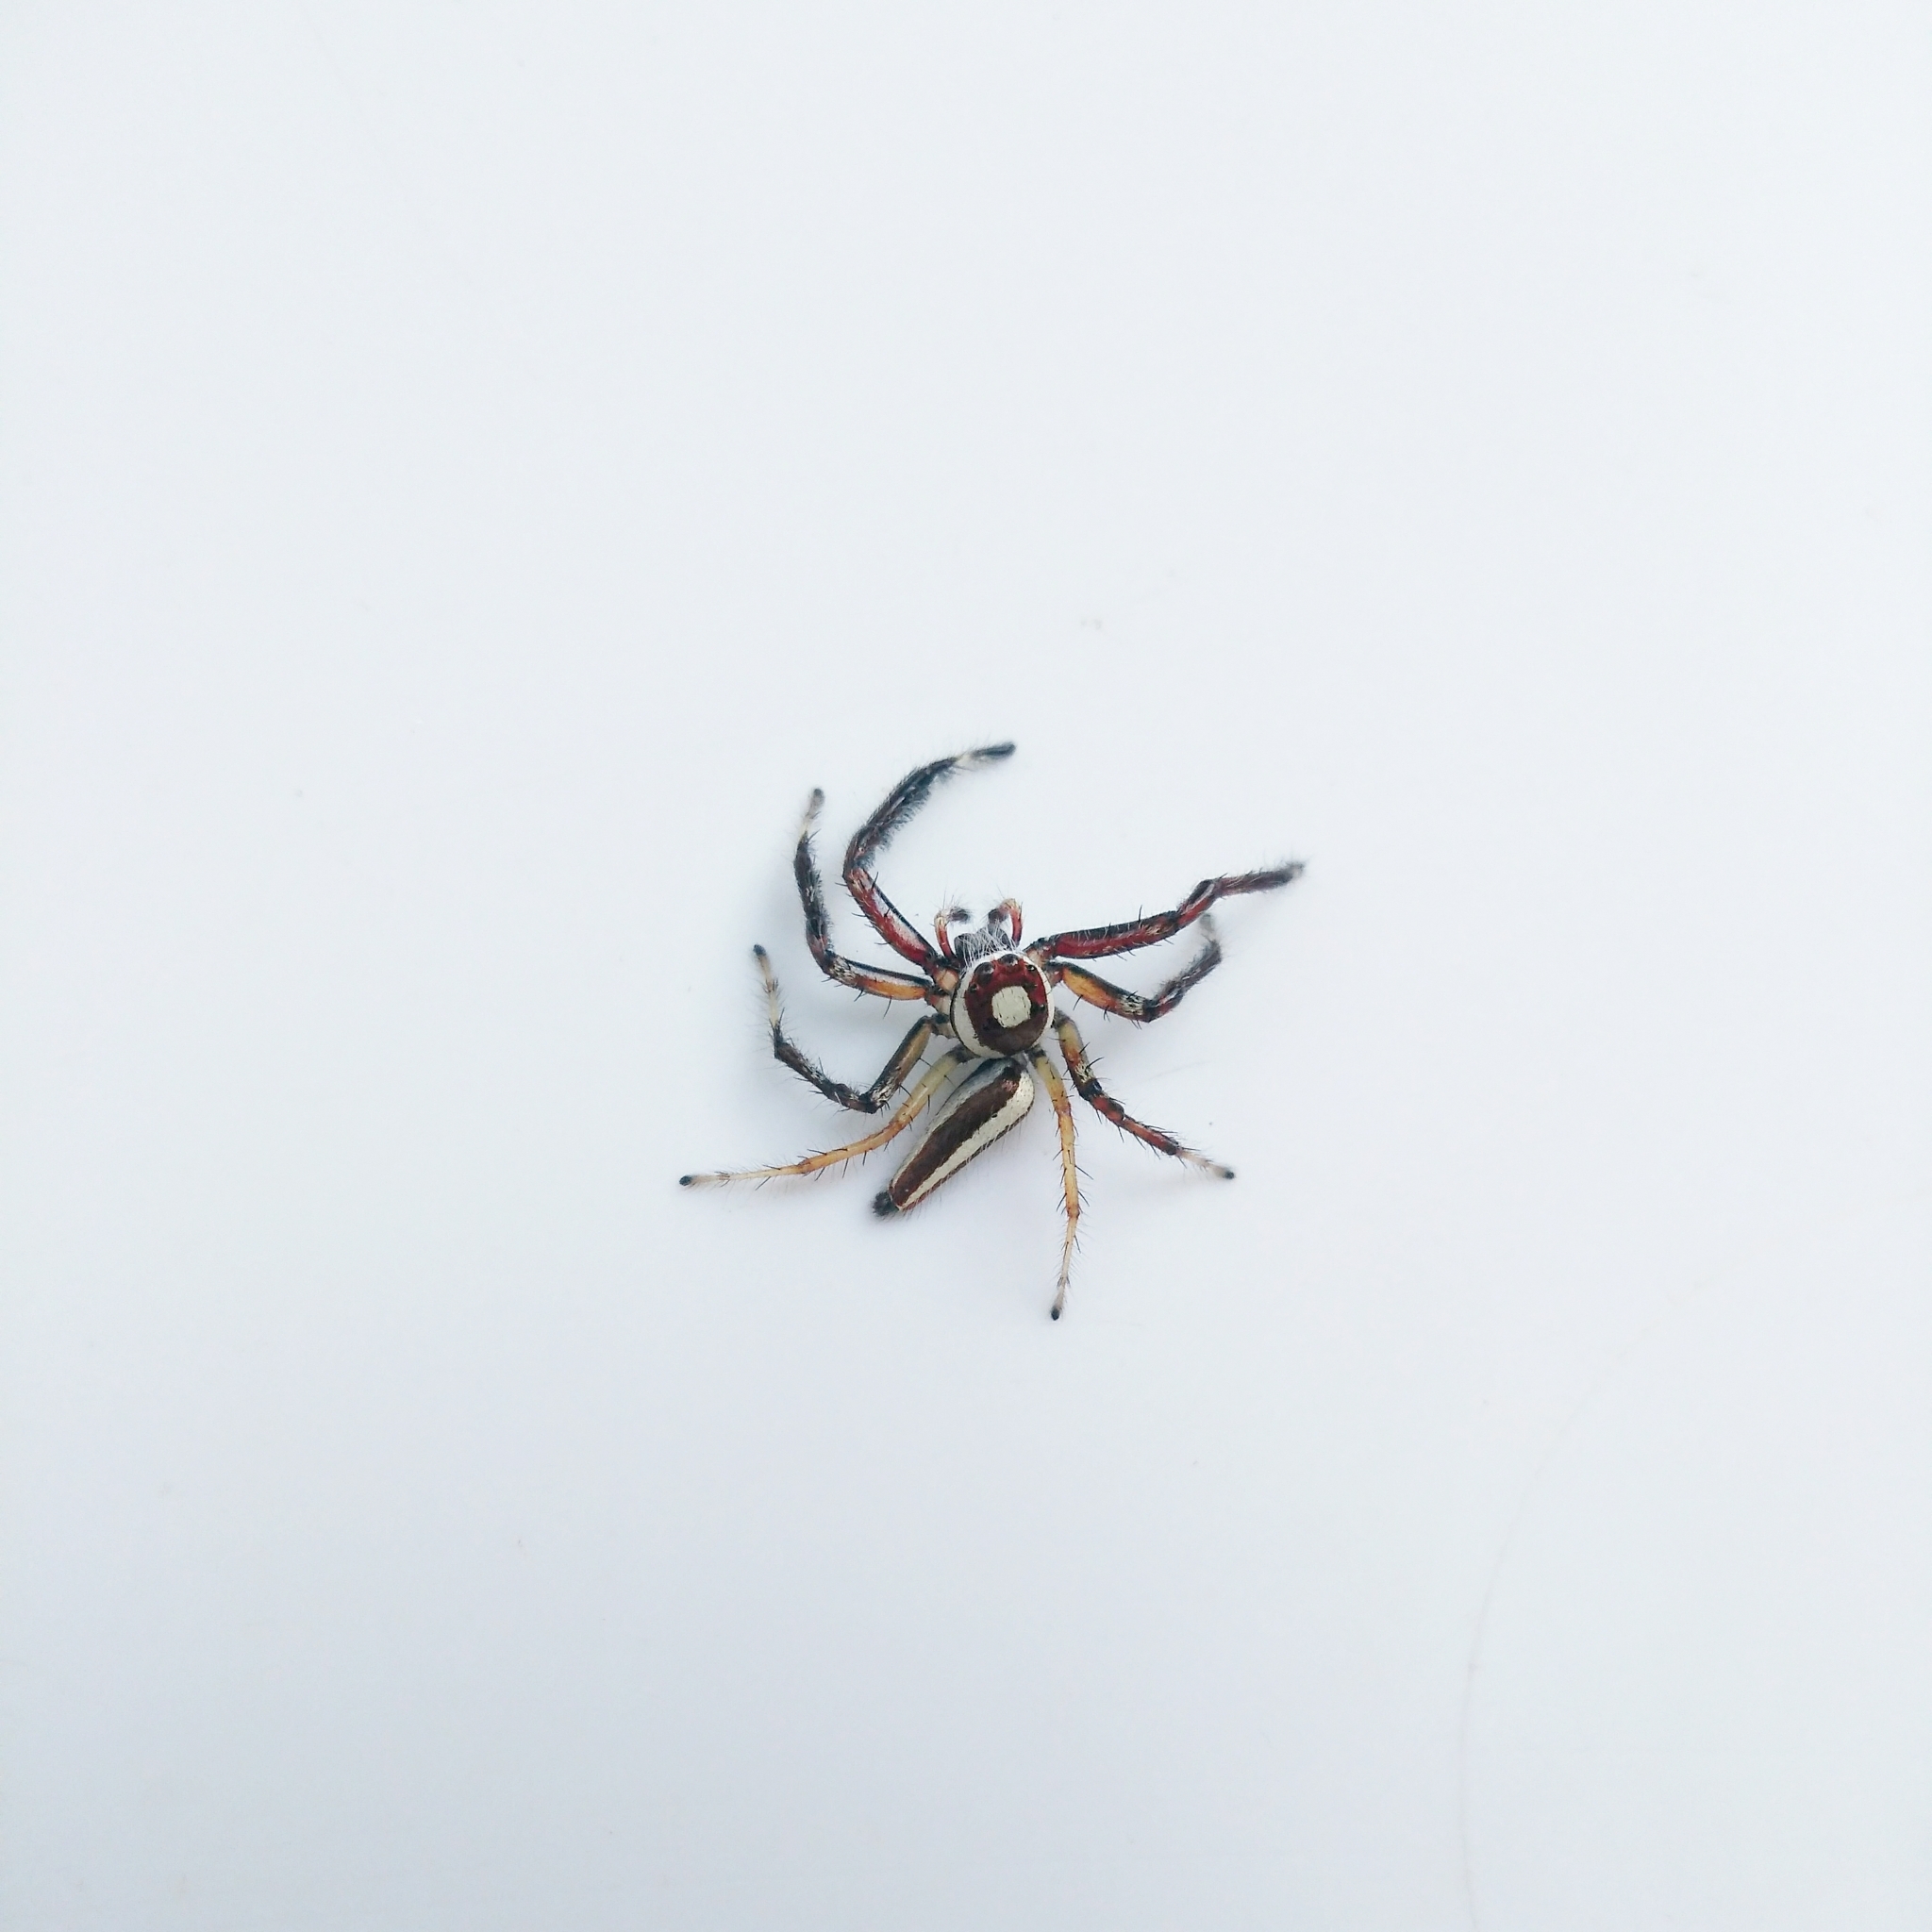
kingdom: Animalia
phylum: Arthropoda
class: Arachnida
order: Araneae
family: Salticidae
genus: Telamonia
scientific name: Telamonia dimidiata
